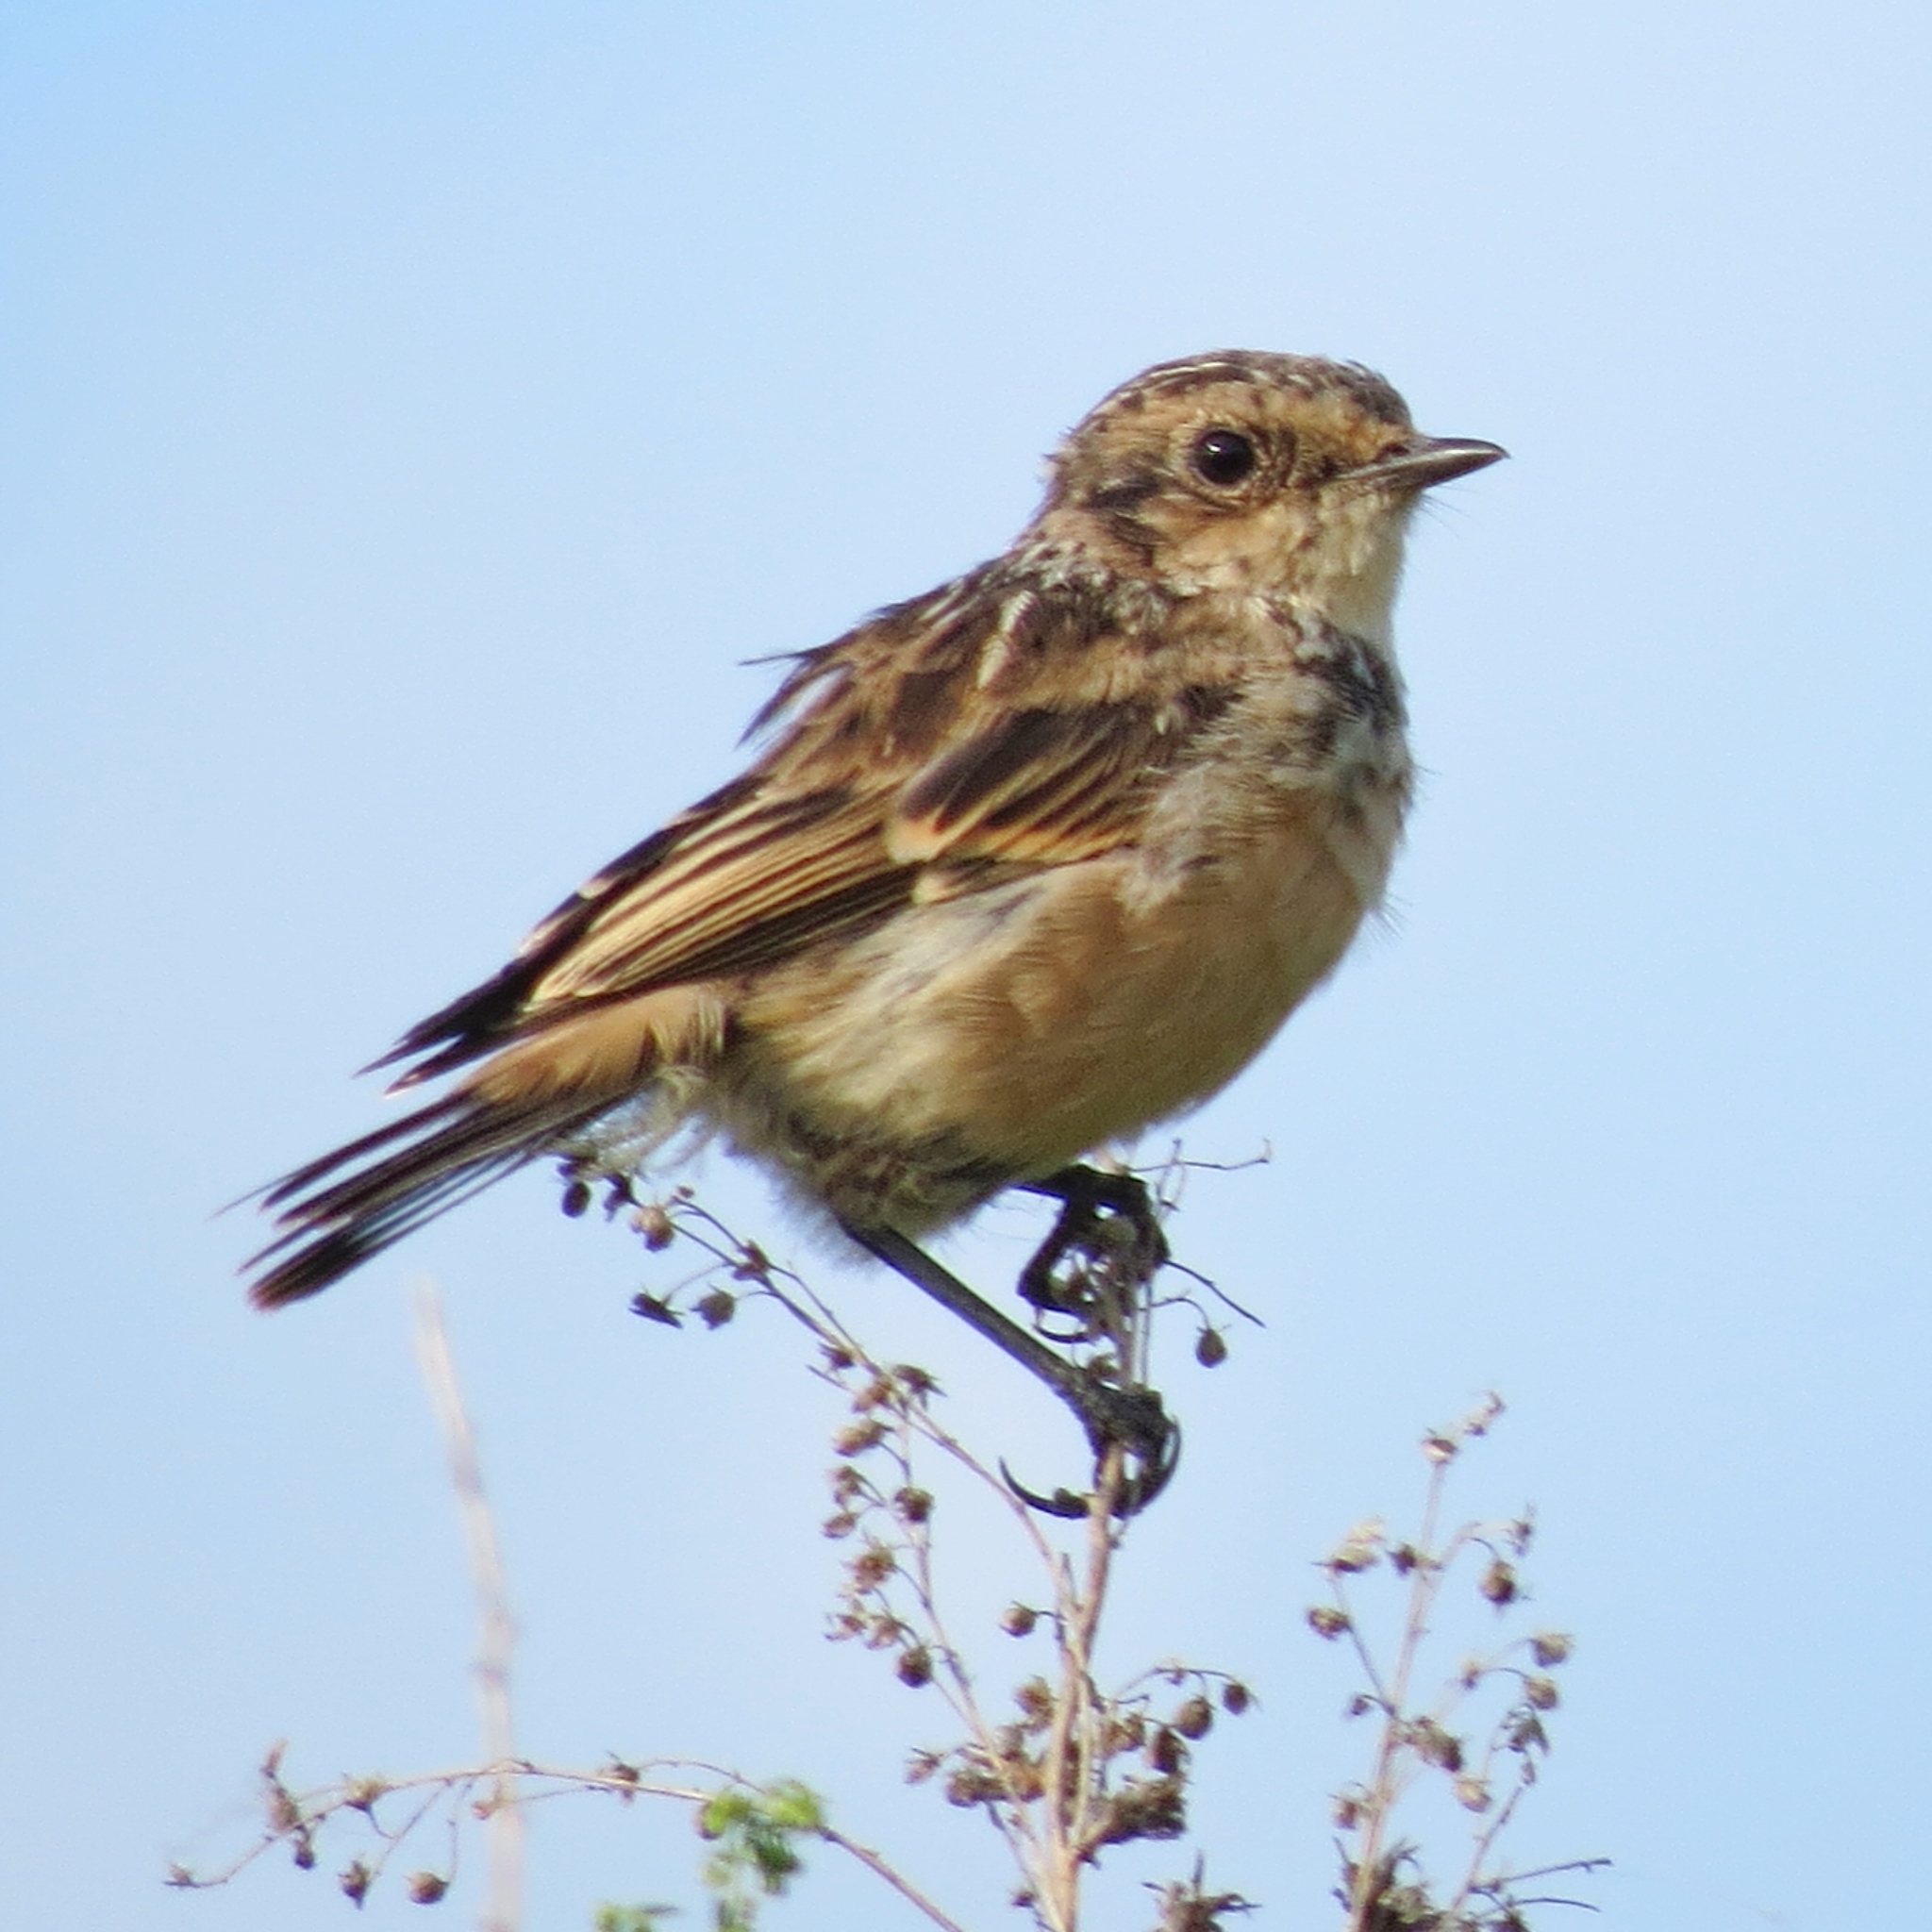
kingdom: Animalia
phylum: Chordata
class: Aves
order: Passeriformes
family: Muscicapidae
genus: Saxicola
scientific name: Saxicola maurus
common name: Siberian stonechat
